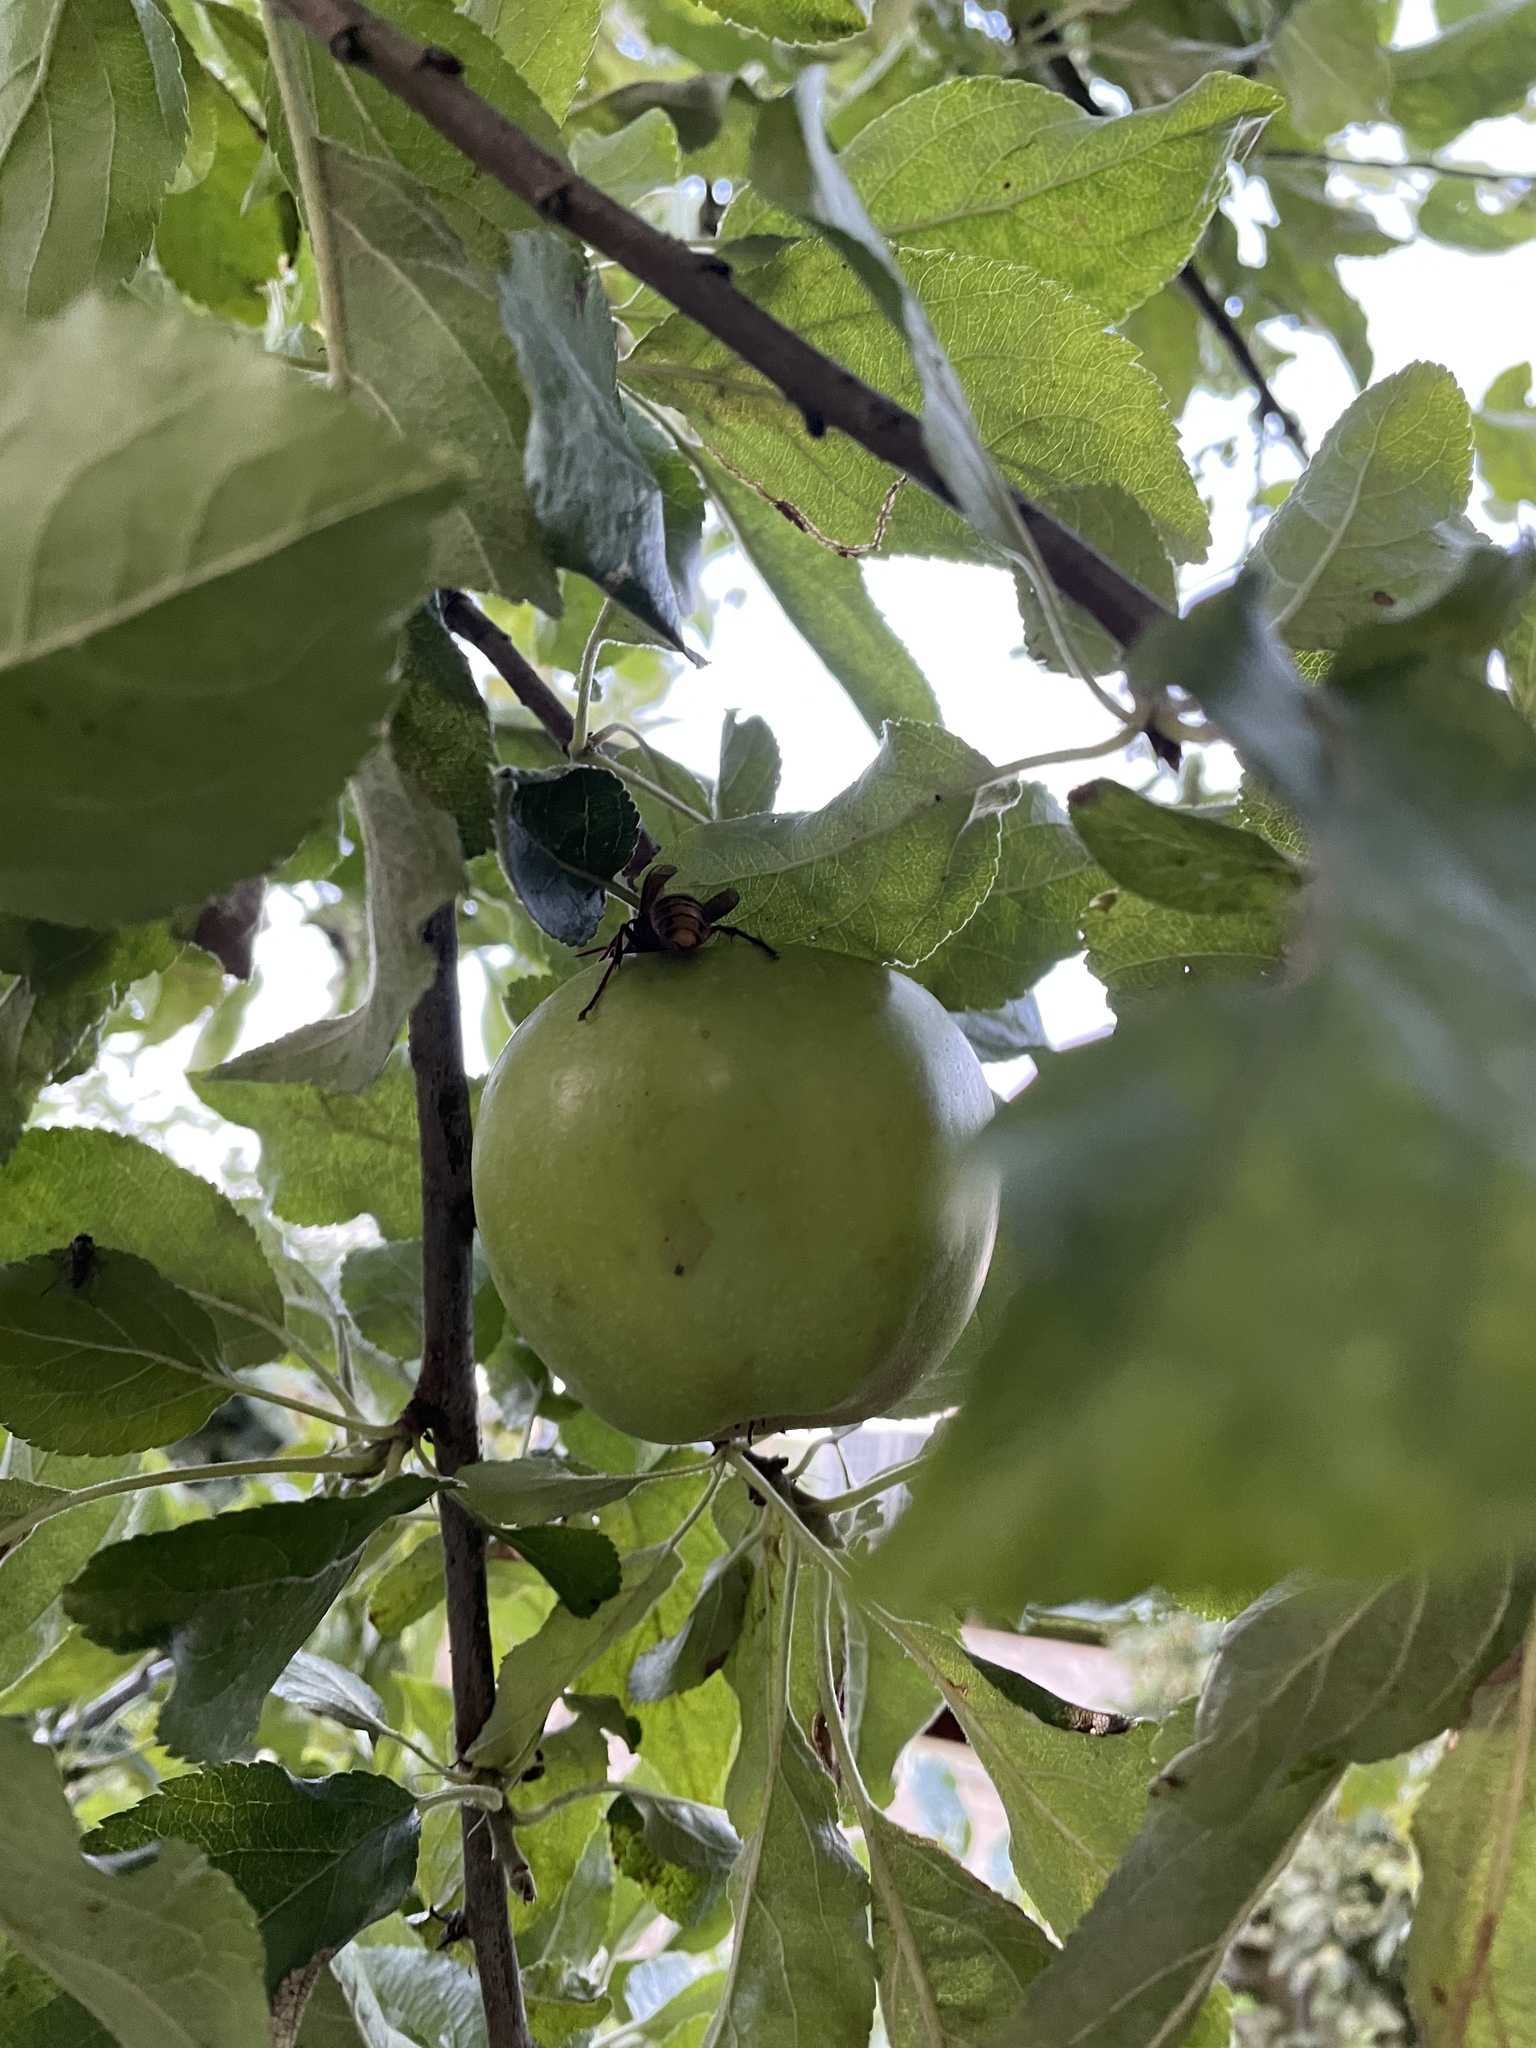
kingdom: Animalia
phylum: Arthropoda
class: Insecta
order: Hymenoptera
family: Vespidae
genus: Vespa
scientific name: Vespa crabro
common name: Hornet
